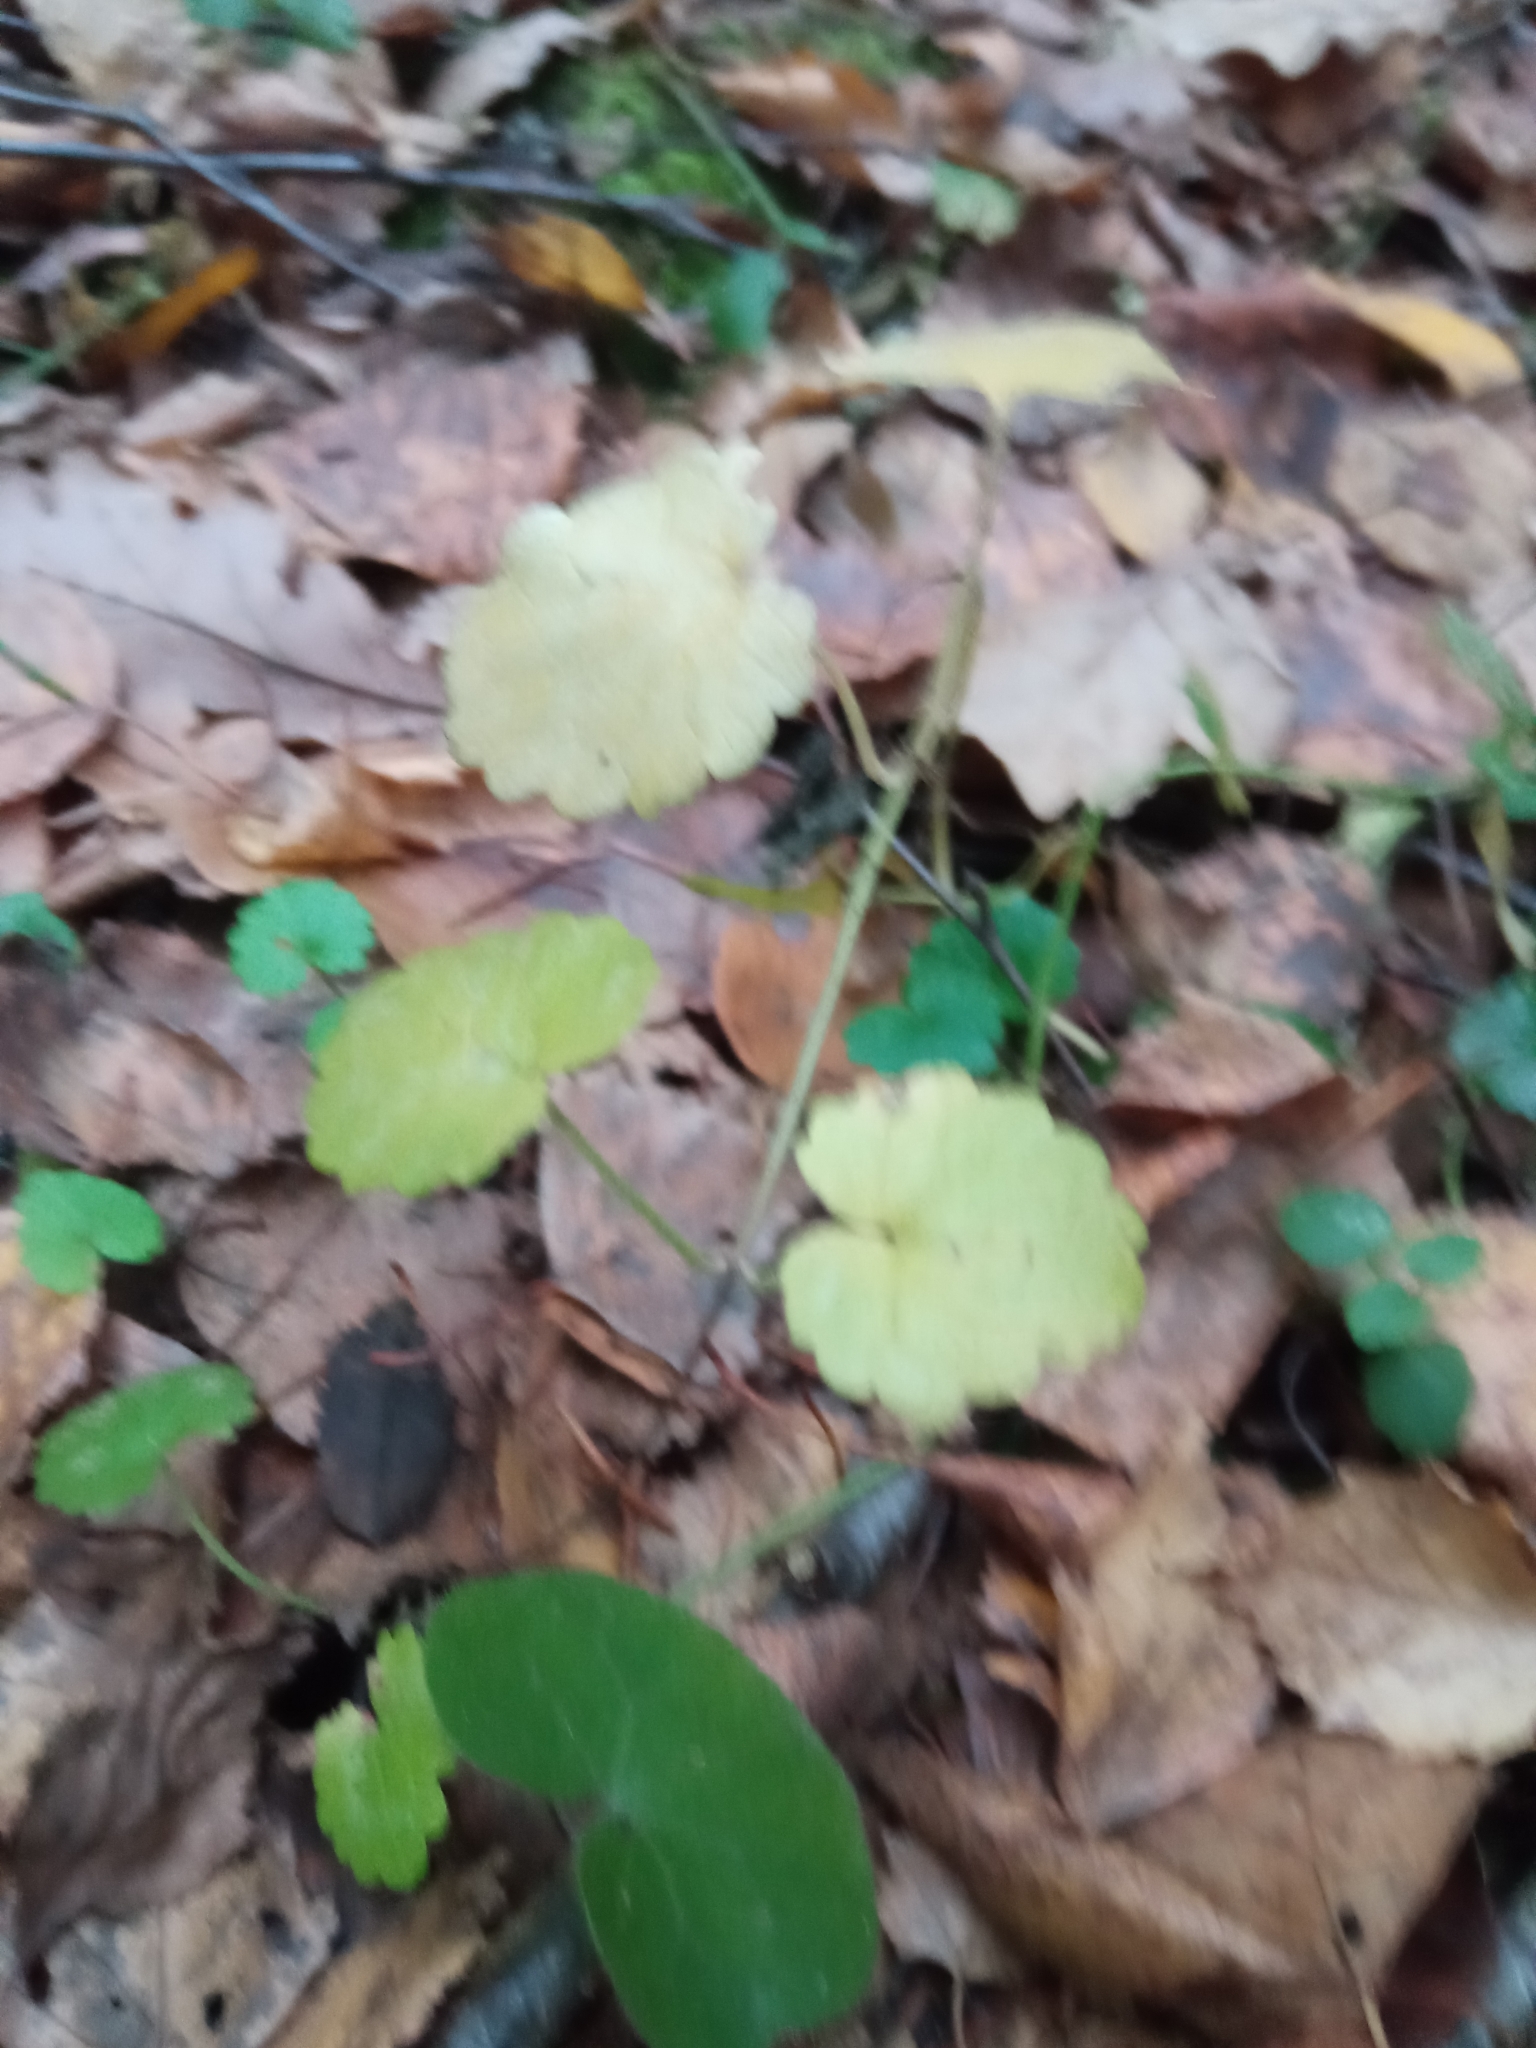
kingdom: Plantae
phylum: Tracheophyta
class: Magnoliopsida
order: Lamiales
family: Lamiaceae
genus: Glechoma
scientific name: Glechoma hederacea
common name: Ground ivy
